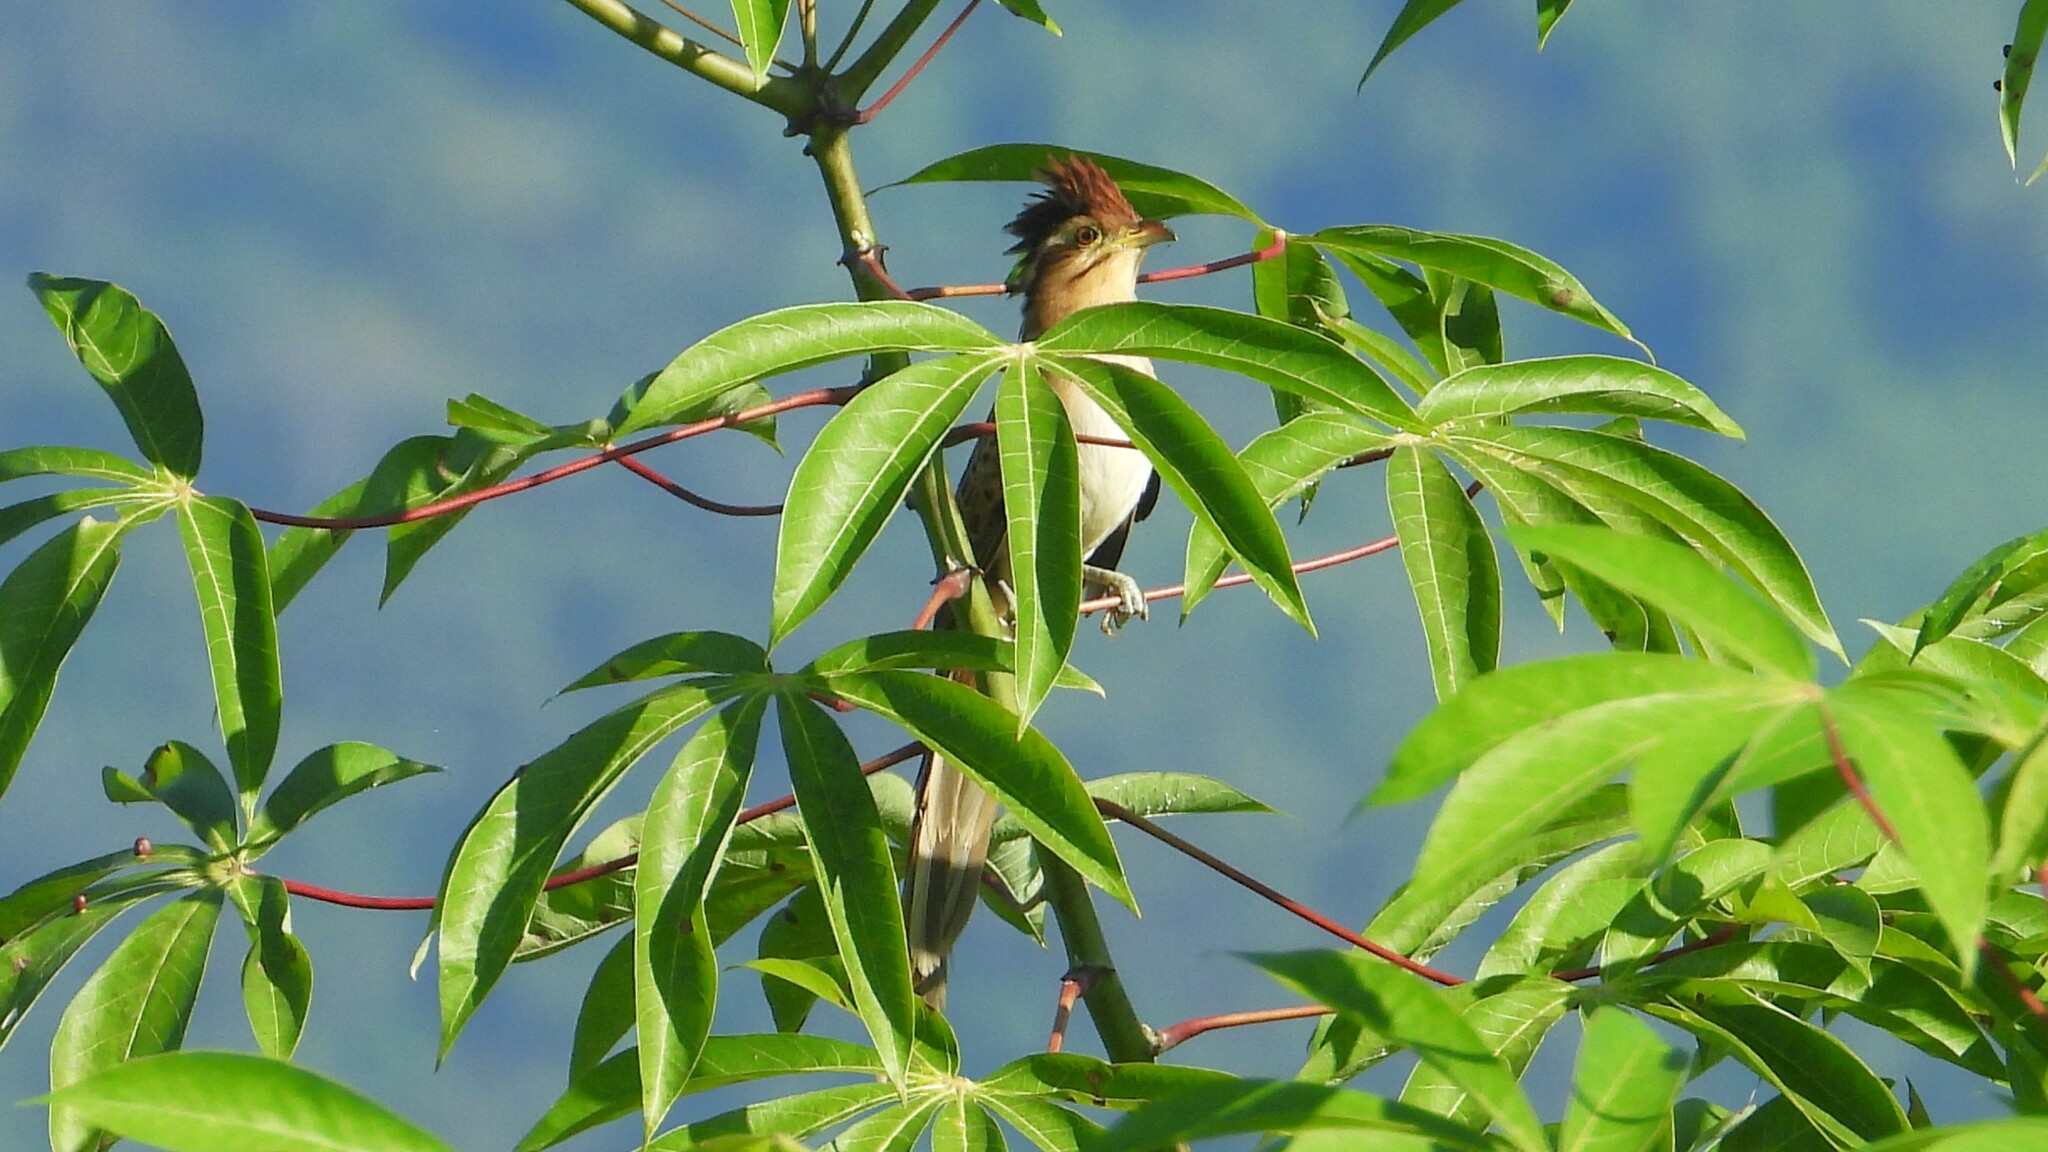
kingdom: Animalia
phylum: Chordata
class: Aves
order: Cuculiformes
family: Cuculidae
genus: Tapera
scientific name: Tapera naevia
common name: Striped cuckoo
